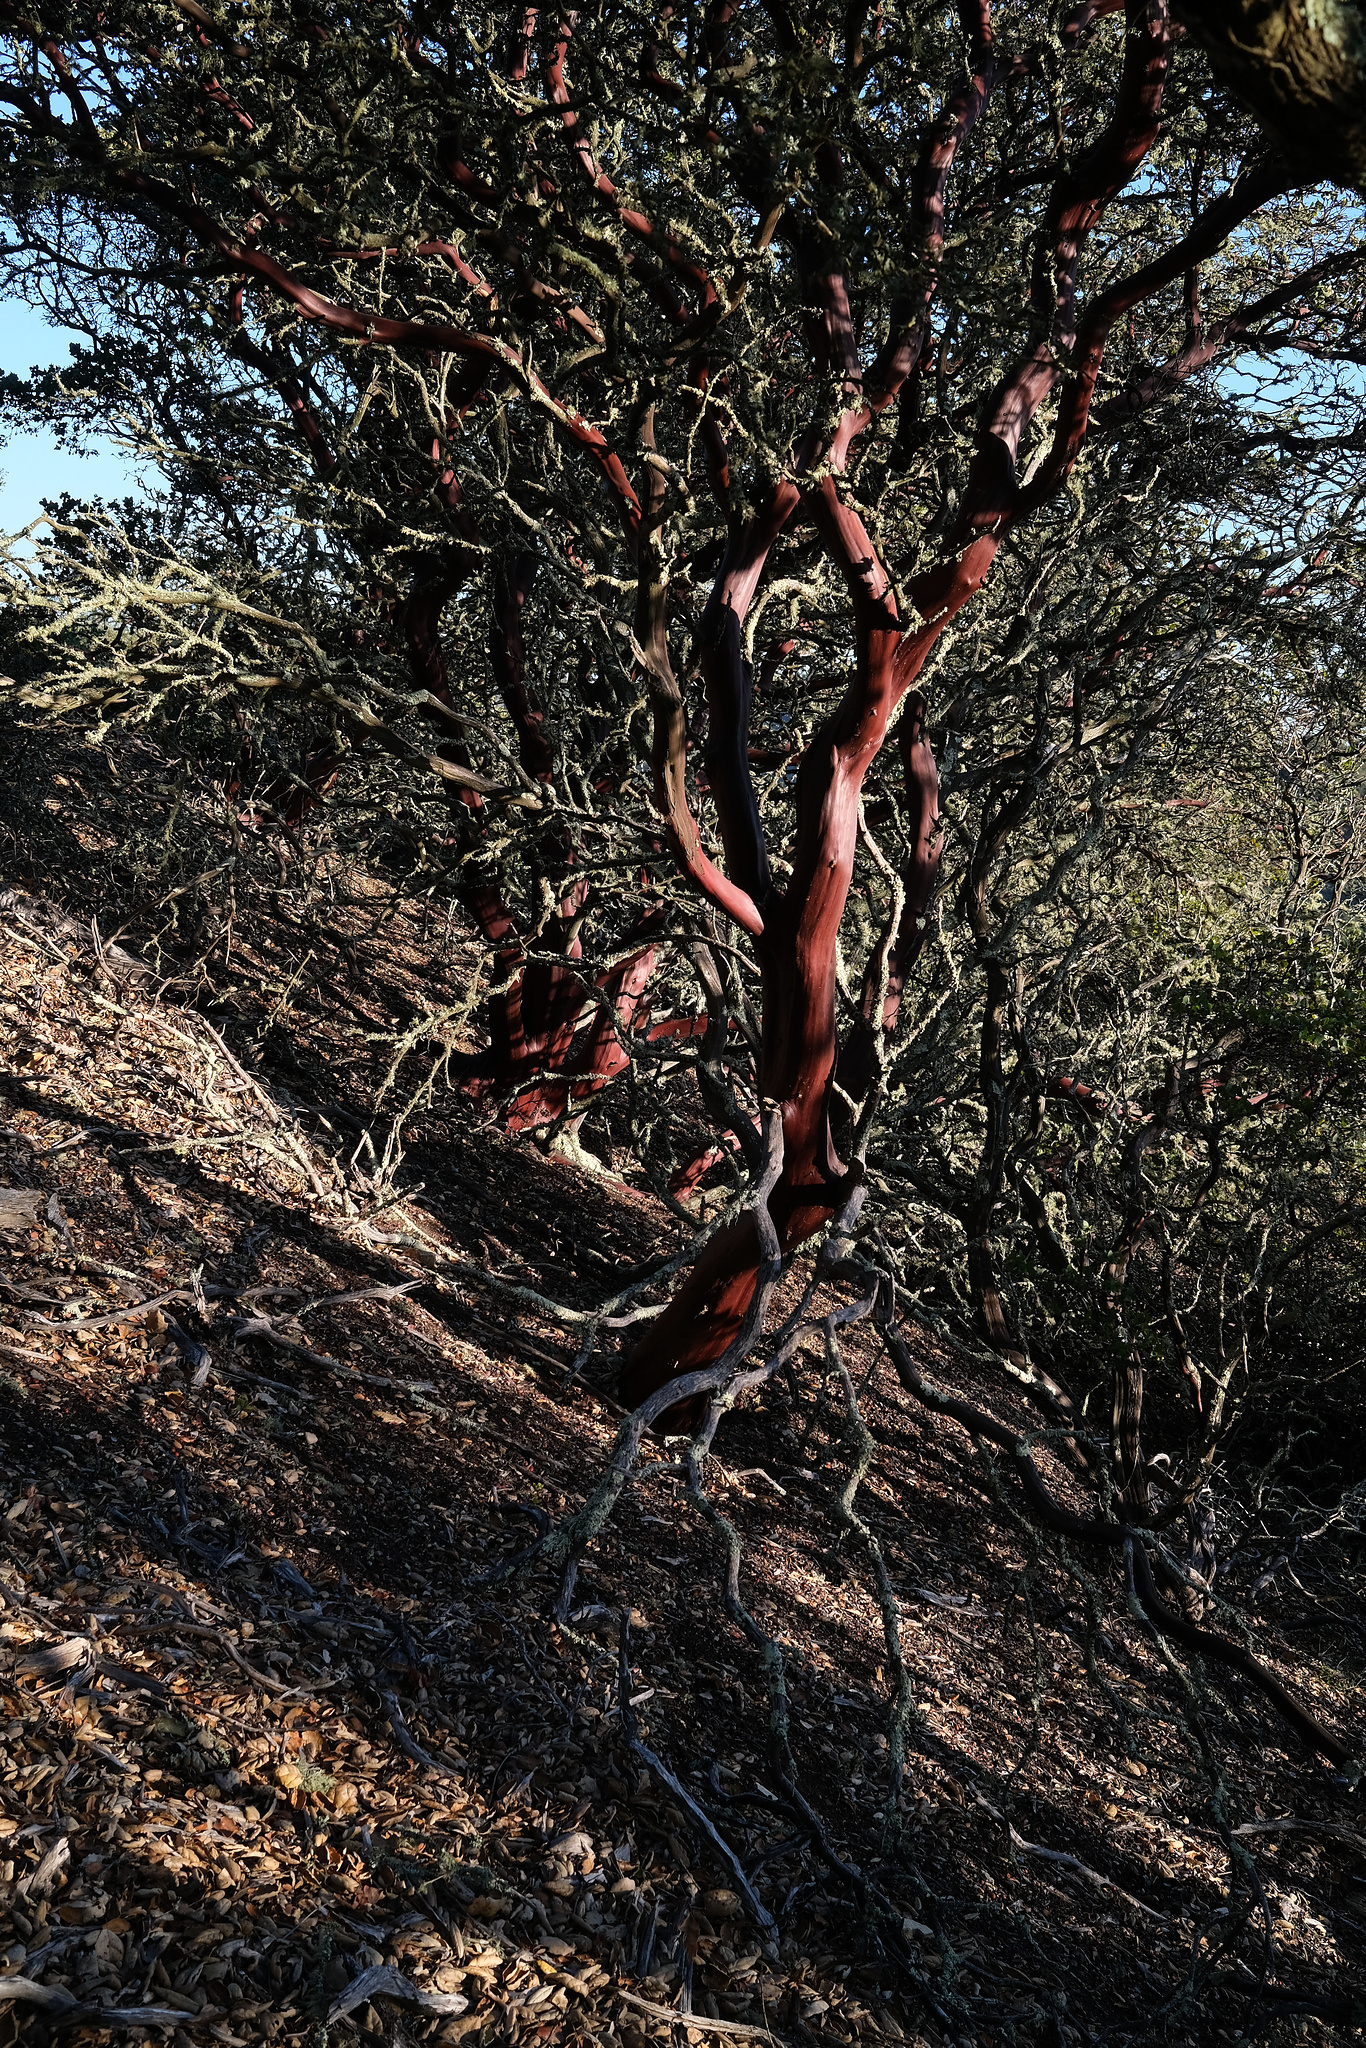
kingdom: Plantae
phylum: Tracheophyta
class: Magnoliopsida
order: Ericales
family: Ericaceae
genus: Arctostaphylos
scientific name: Arctostaphylos pechoensis
